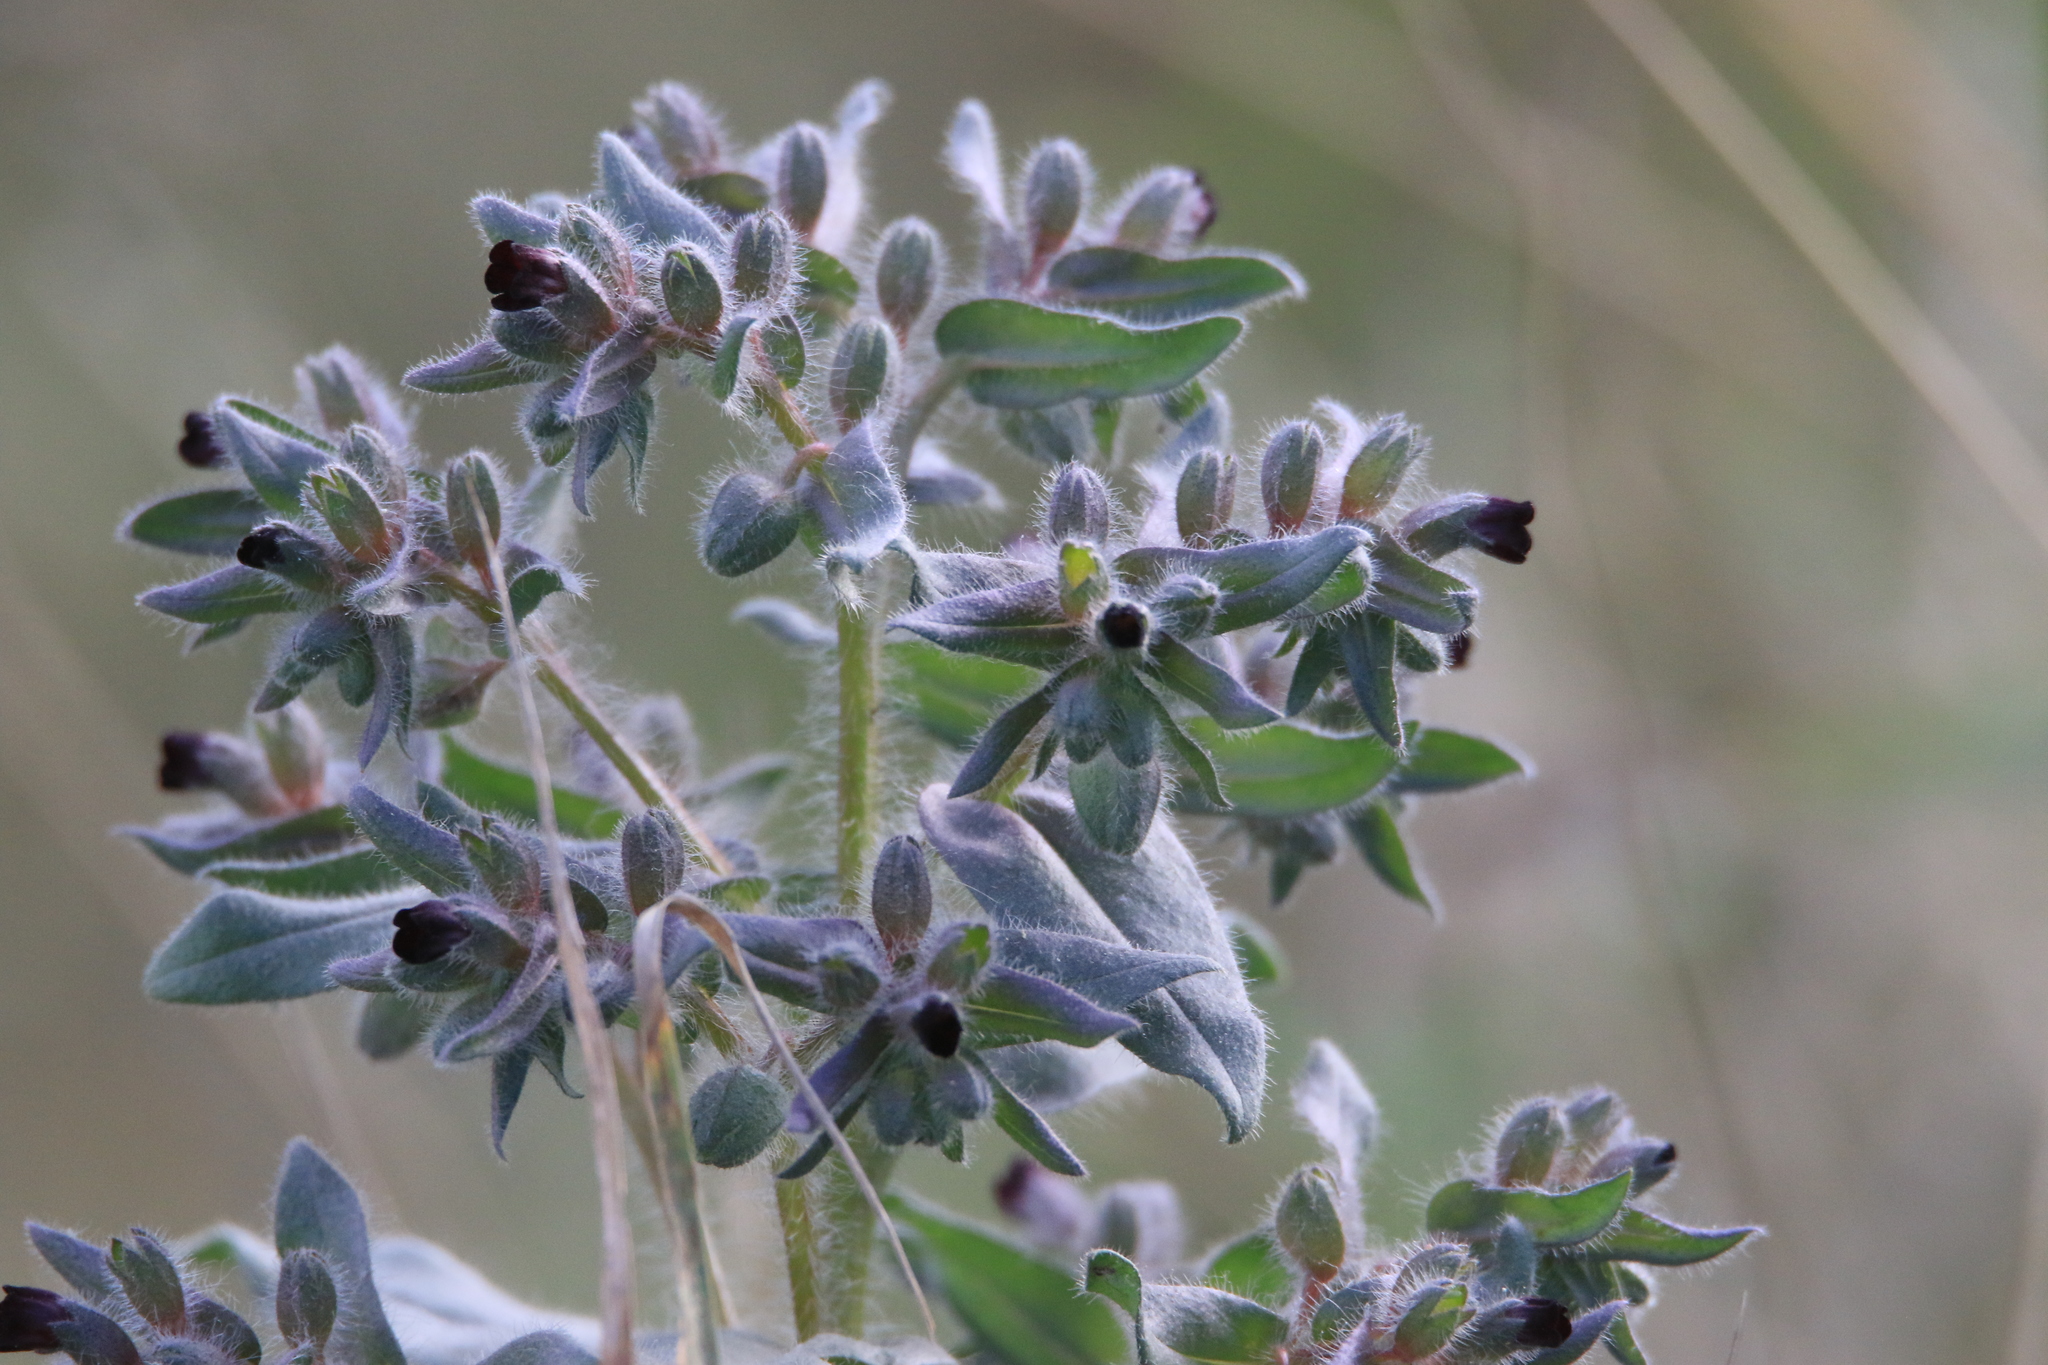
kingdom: Plantae
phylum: Tracheophyta
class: Magnoliopsida
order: Boraginales
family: Boraginaceae
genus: Nonea
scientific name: Nonea pulla
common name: Brown nonea
